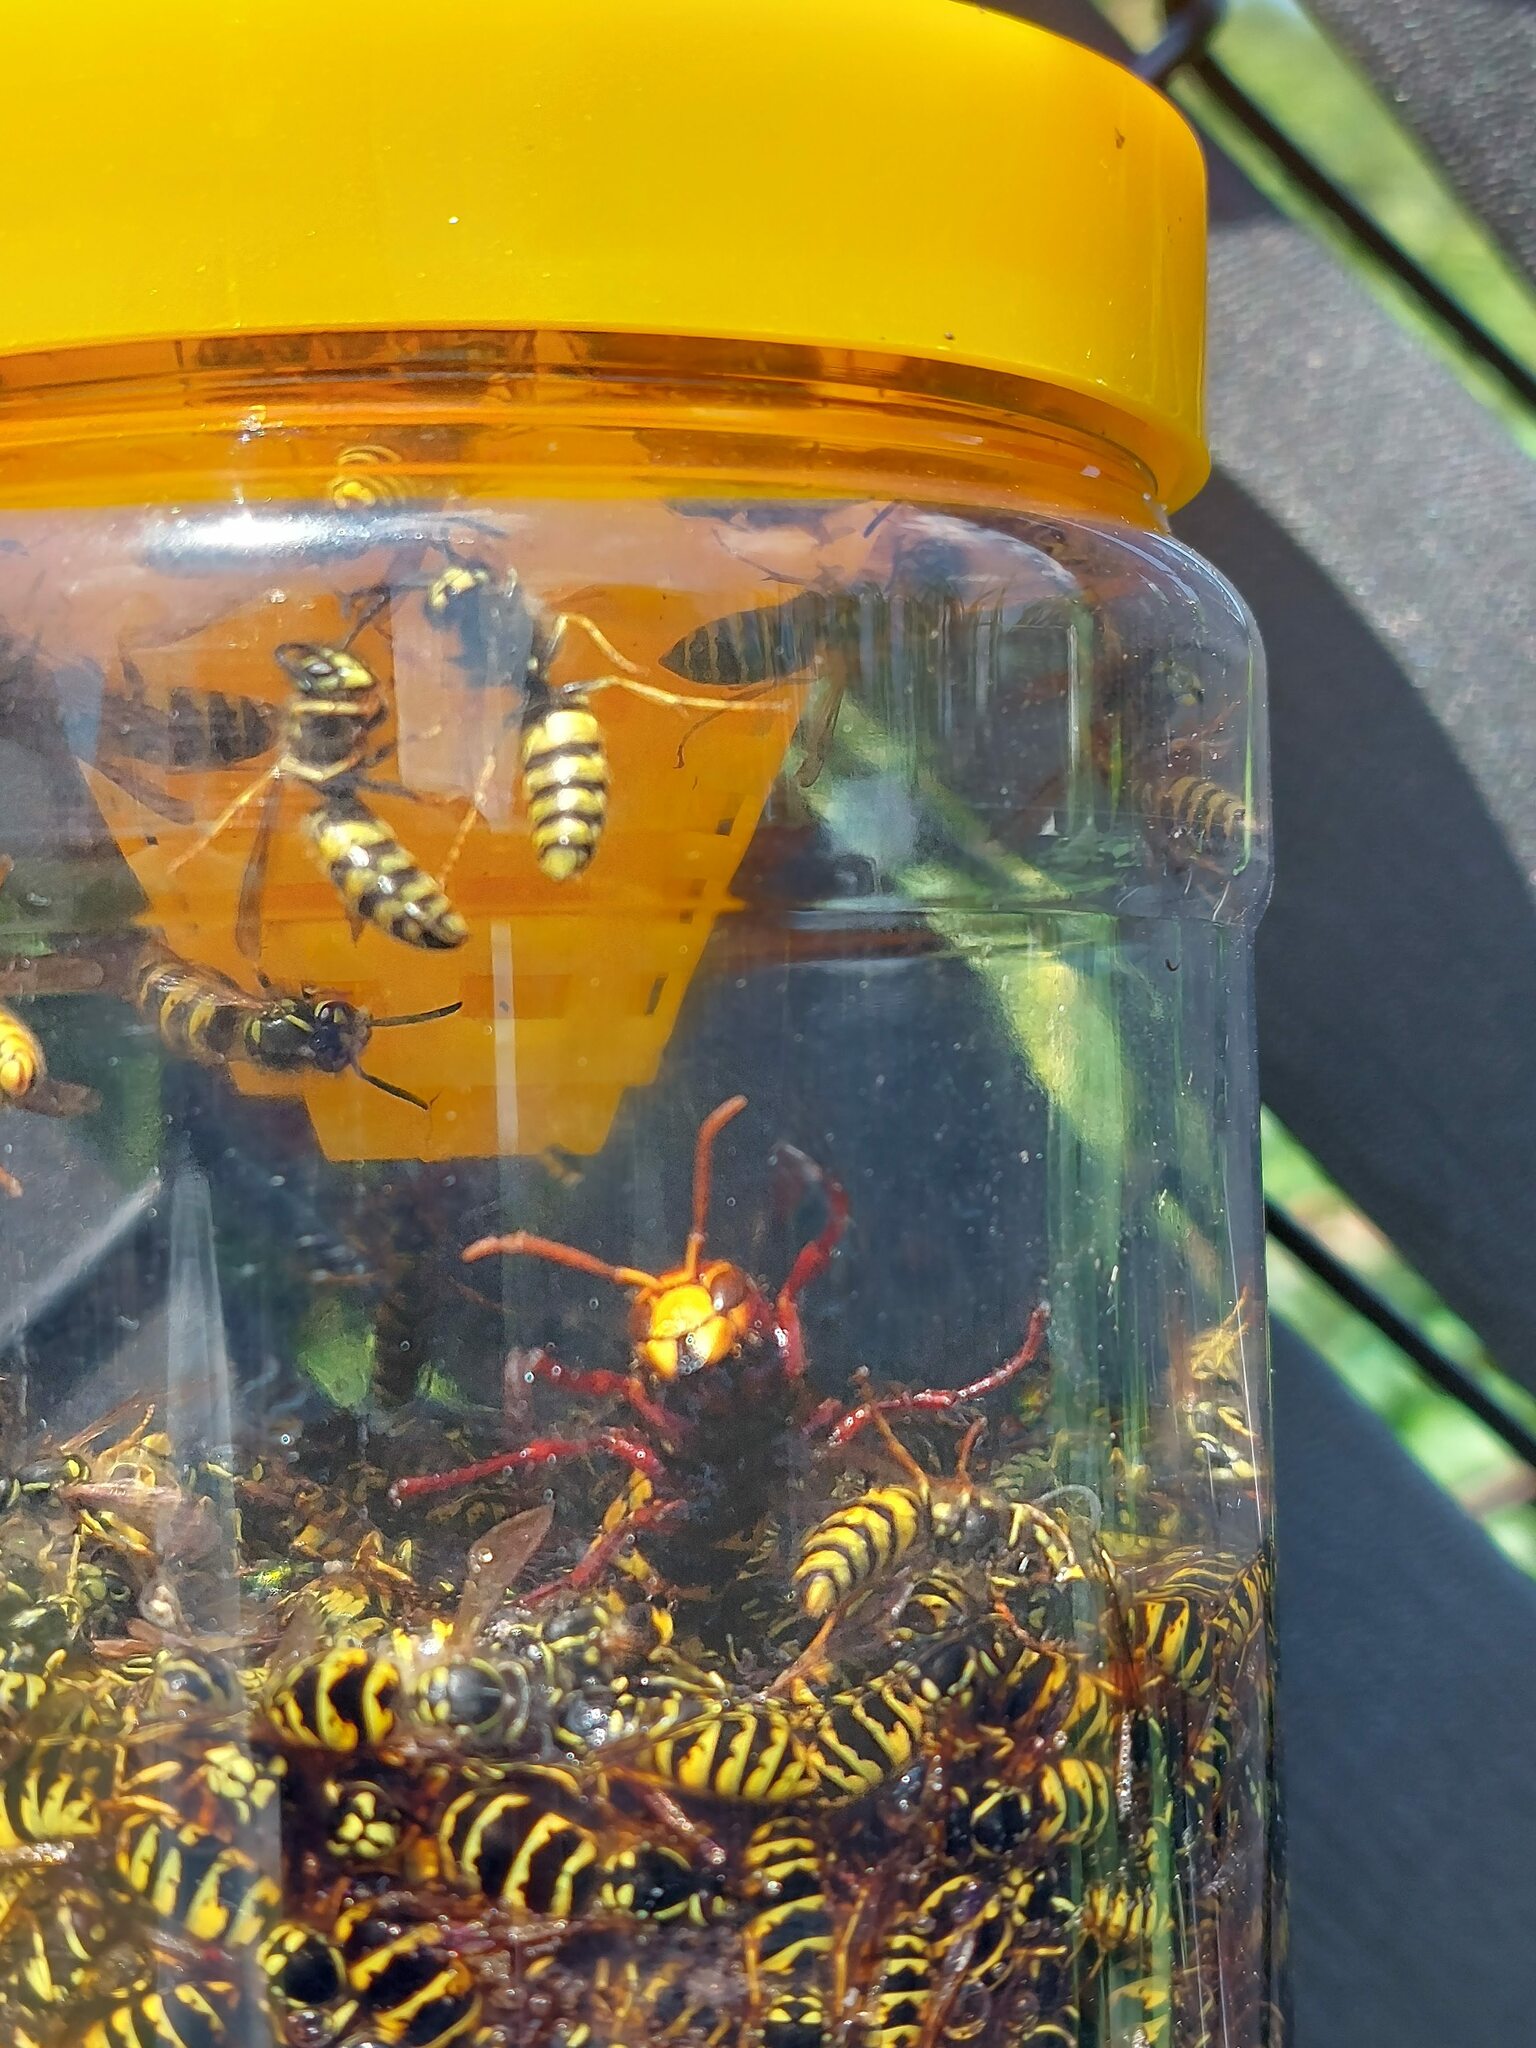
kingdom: Animalia
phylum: Arthropoda
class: Insecta
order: Hymenoptera
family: Vespidae
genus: Vespa
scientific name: Vespa crabro
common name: Hornet
